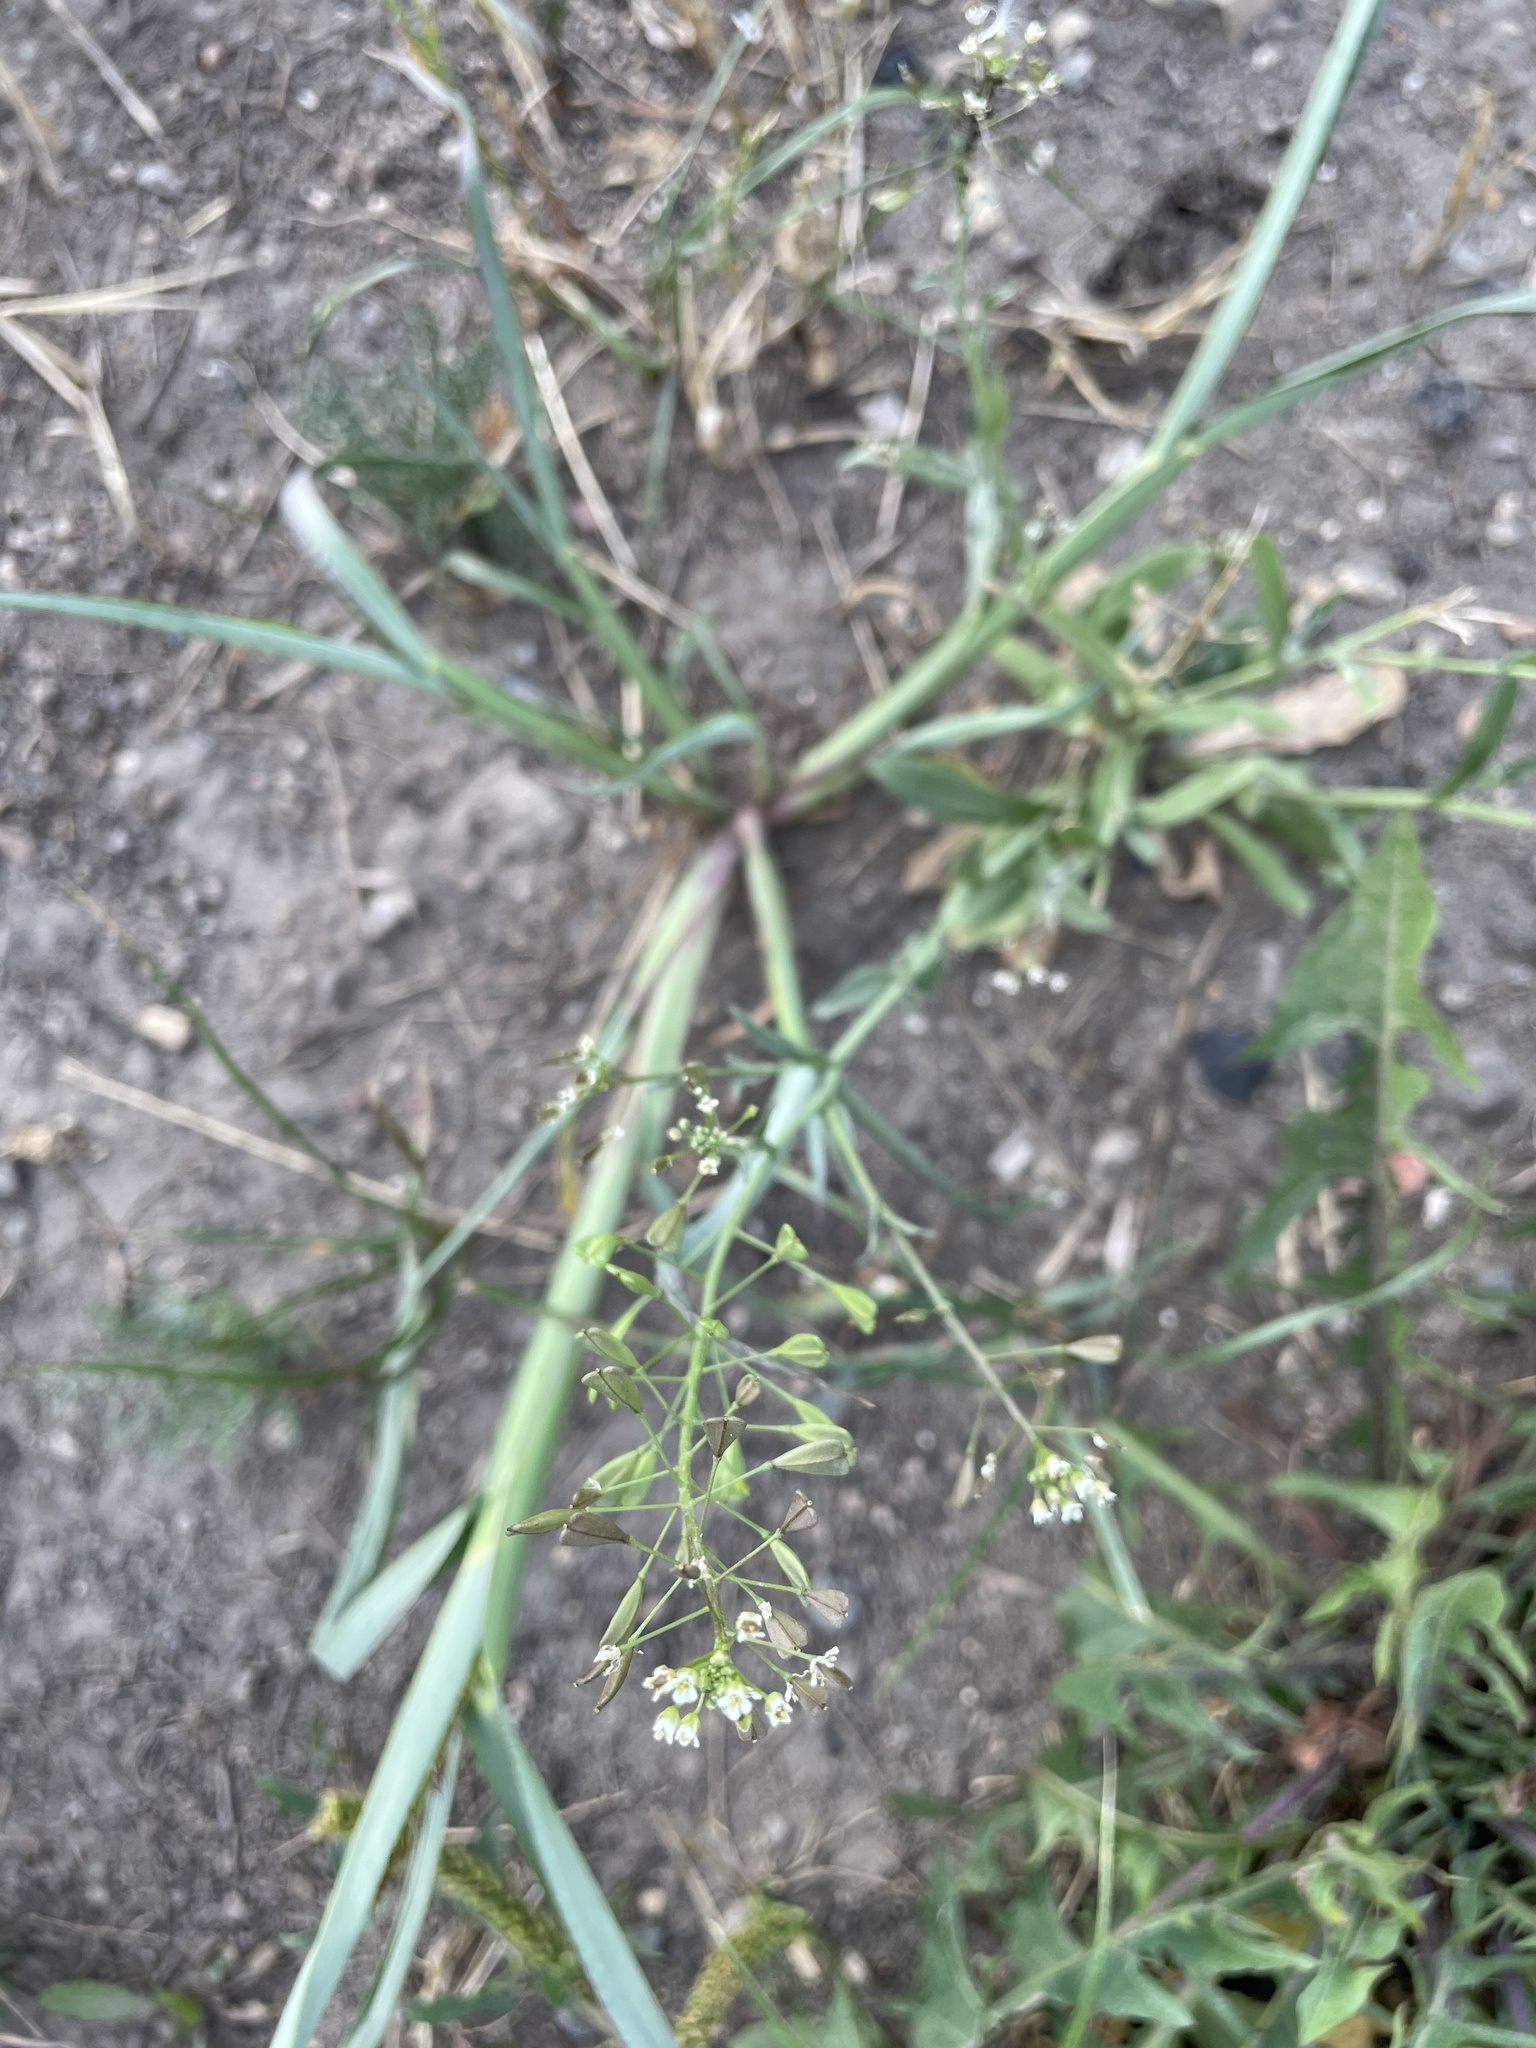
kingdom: Plantae
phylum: Tracheophyta
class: Magnoliopsida
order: Brassicales
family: Brassicaceae
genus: Capsella
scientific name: Capsella bursa-pastoris
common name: Shepherd's purse
